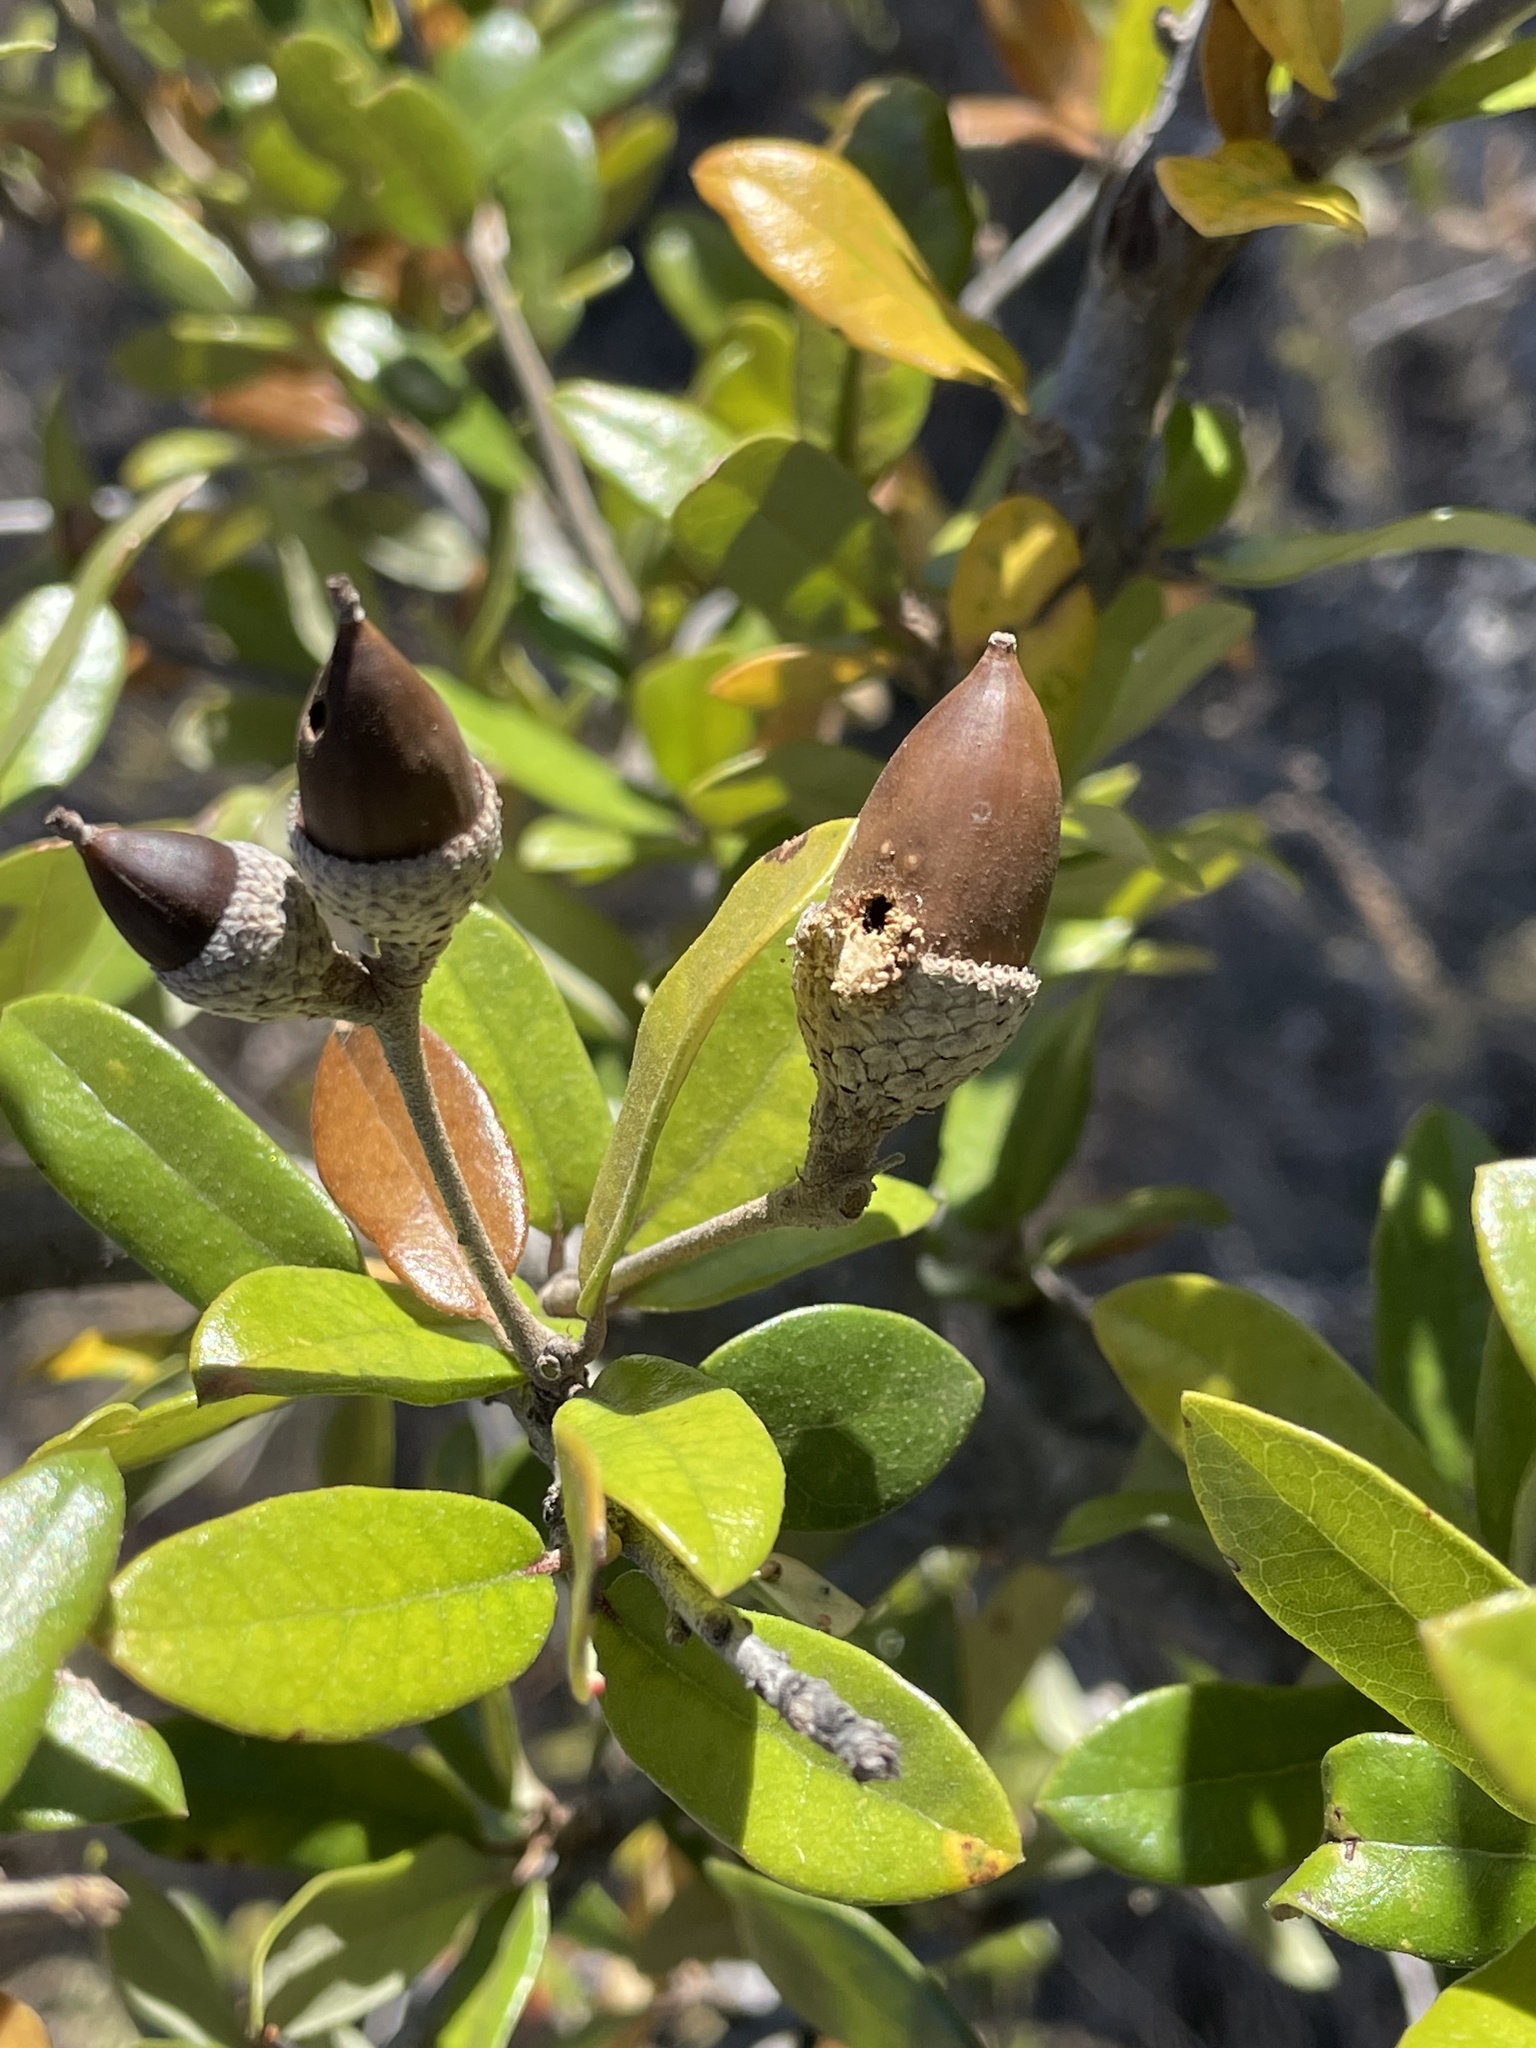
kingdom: Plantae
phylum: Tracheophyta
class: Magnoliopsida
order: Fagales
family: Fagaceae
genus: Quercus
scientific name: Quercus fusiformis
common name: Texas live oak
